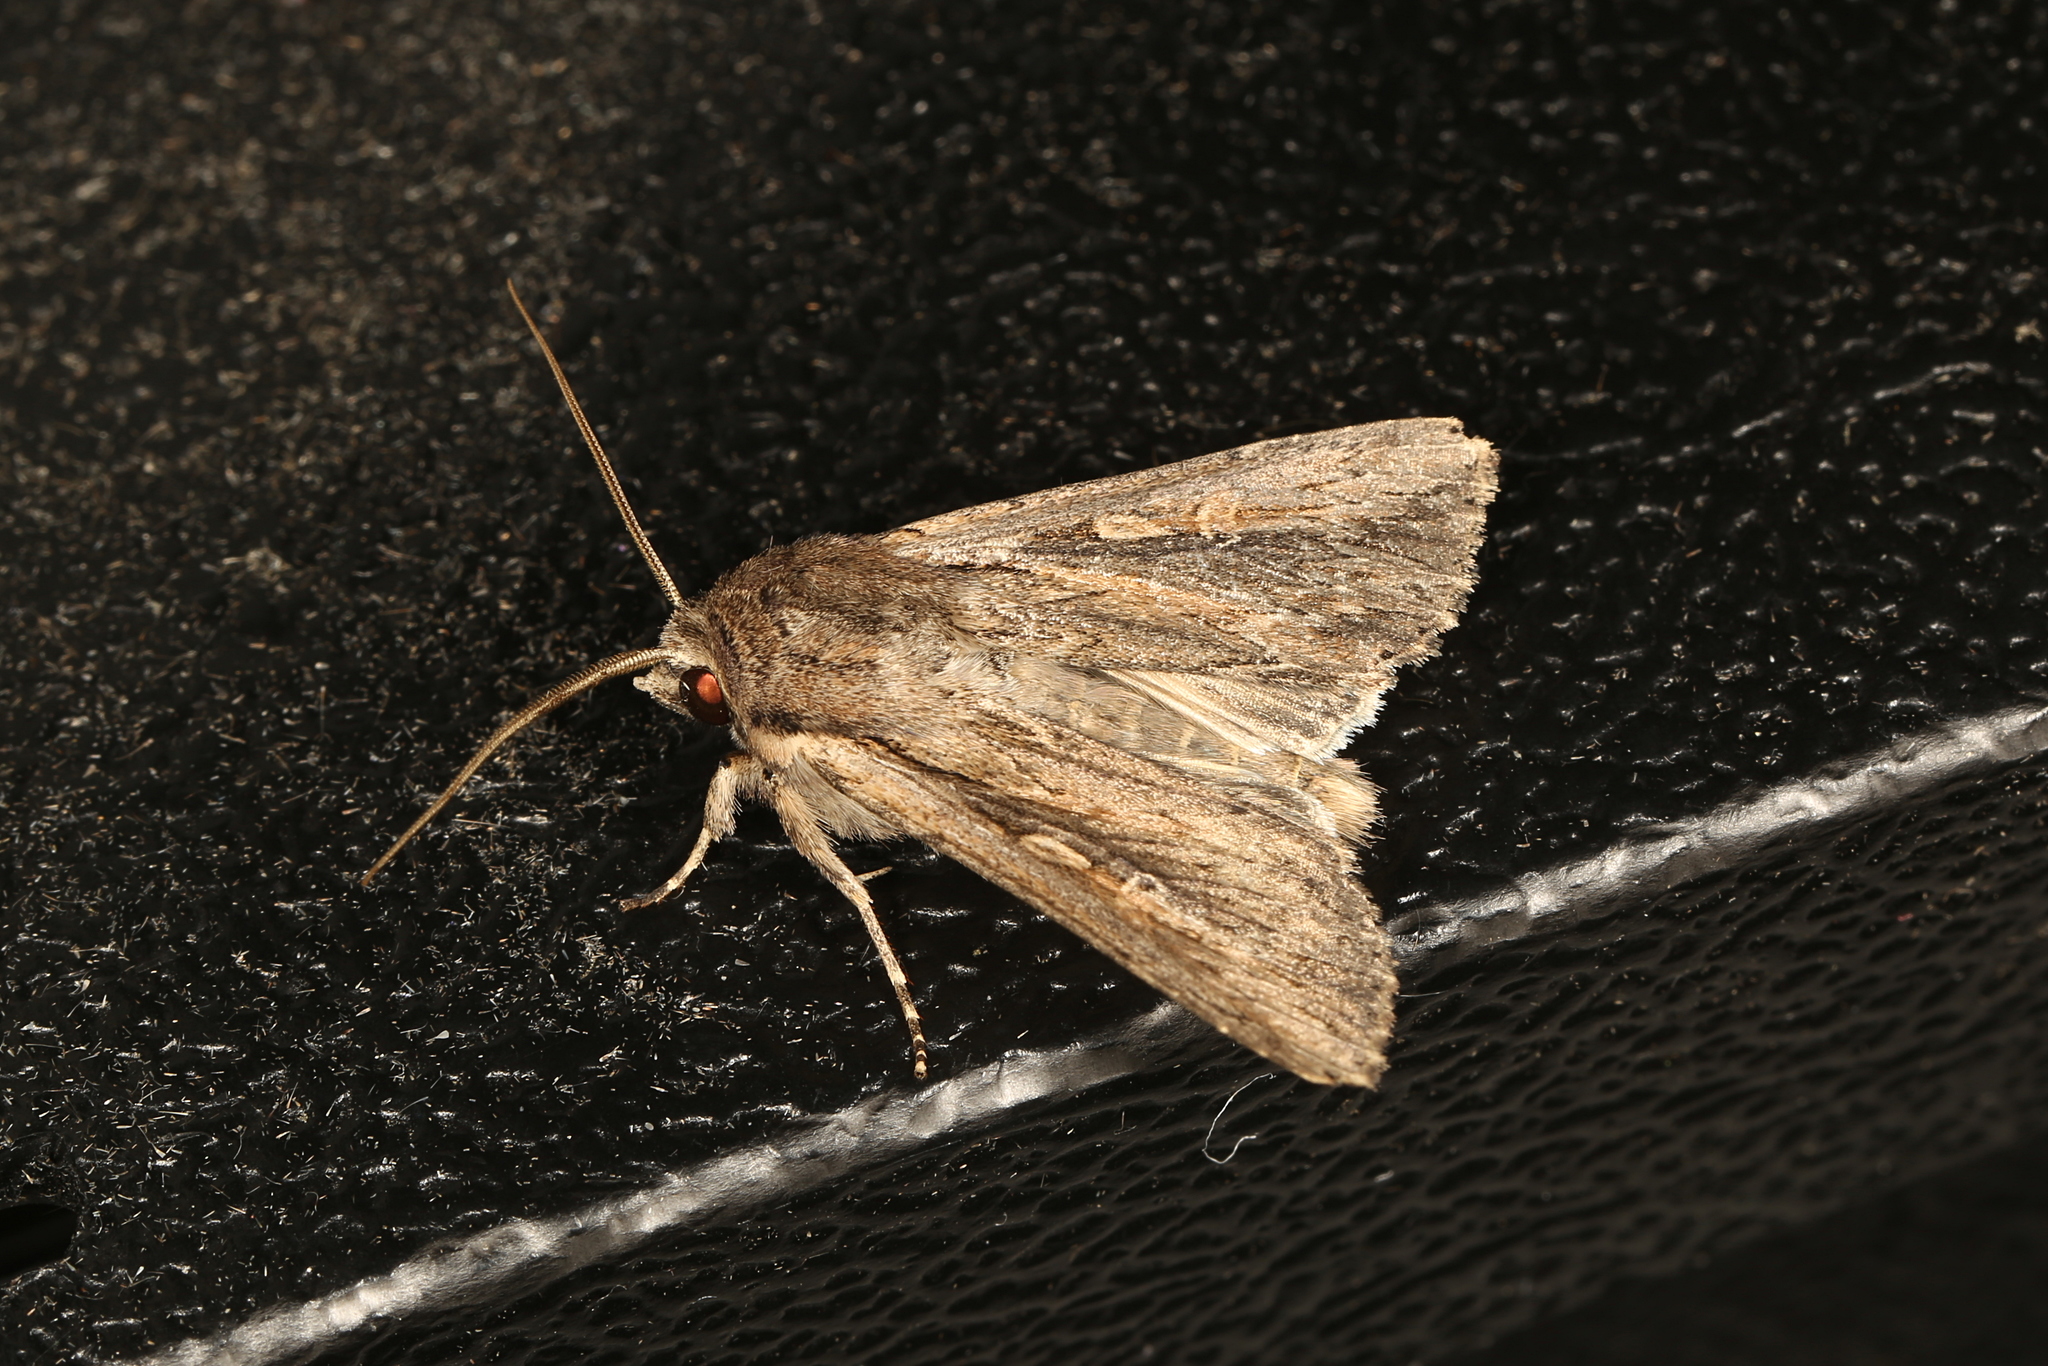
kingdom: Animalia
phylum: Arthropoda
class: Insecta
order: Lepidoptera
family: Noctuidae
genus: Persectania
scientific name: Persectania ewingii
